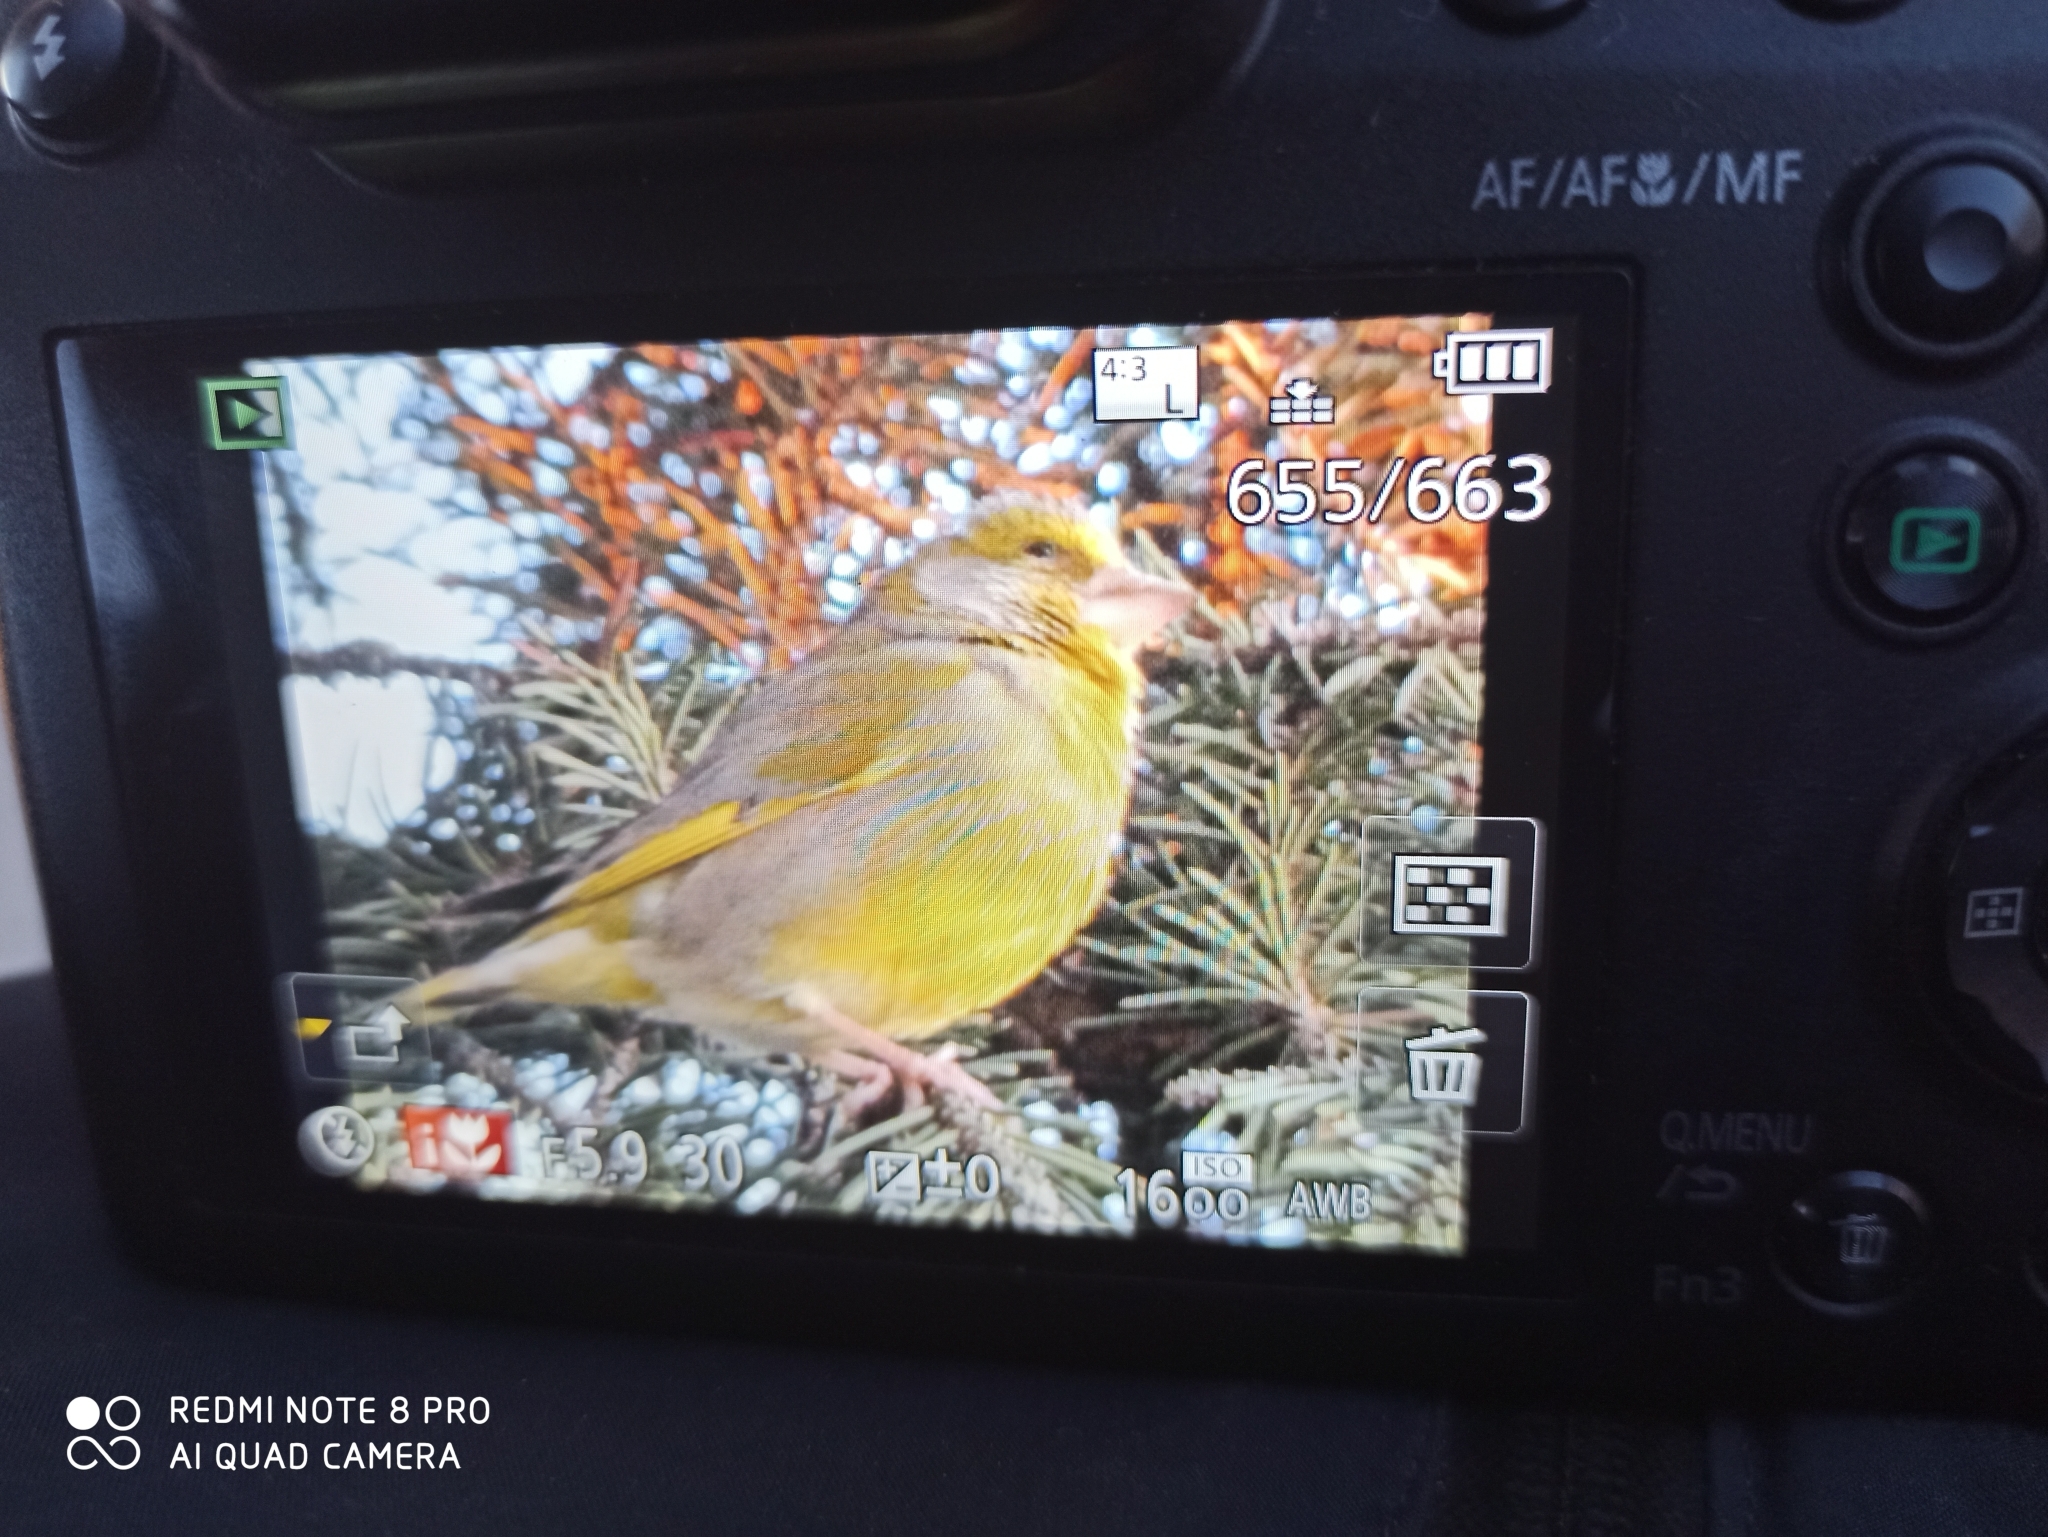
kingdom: Plantae
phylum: Tracheophyta
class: Liliopsida
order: Poales
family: Poaceae
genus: Chloris
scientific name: Chloris chloris
